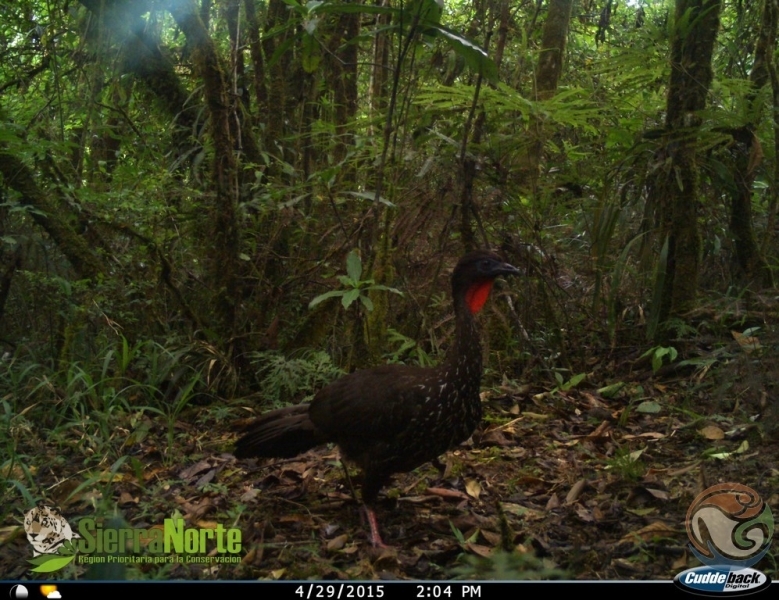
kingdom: Animalia
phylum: Chordata
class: Aves
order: Galliformes
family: Cracidae
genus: Penelope
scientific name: Penelope purpurascens
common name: Crested guan
